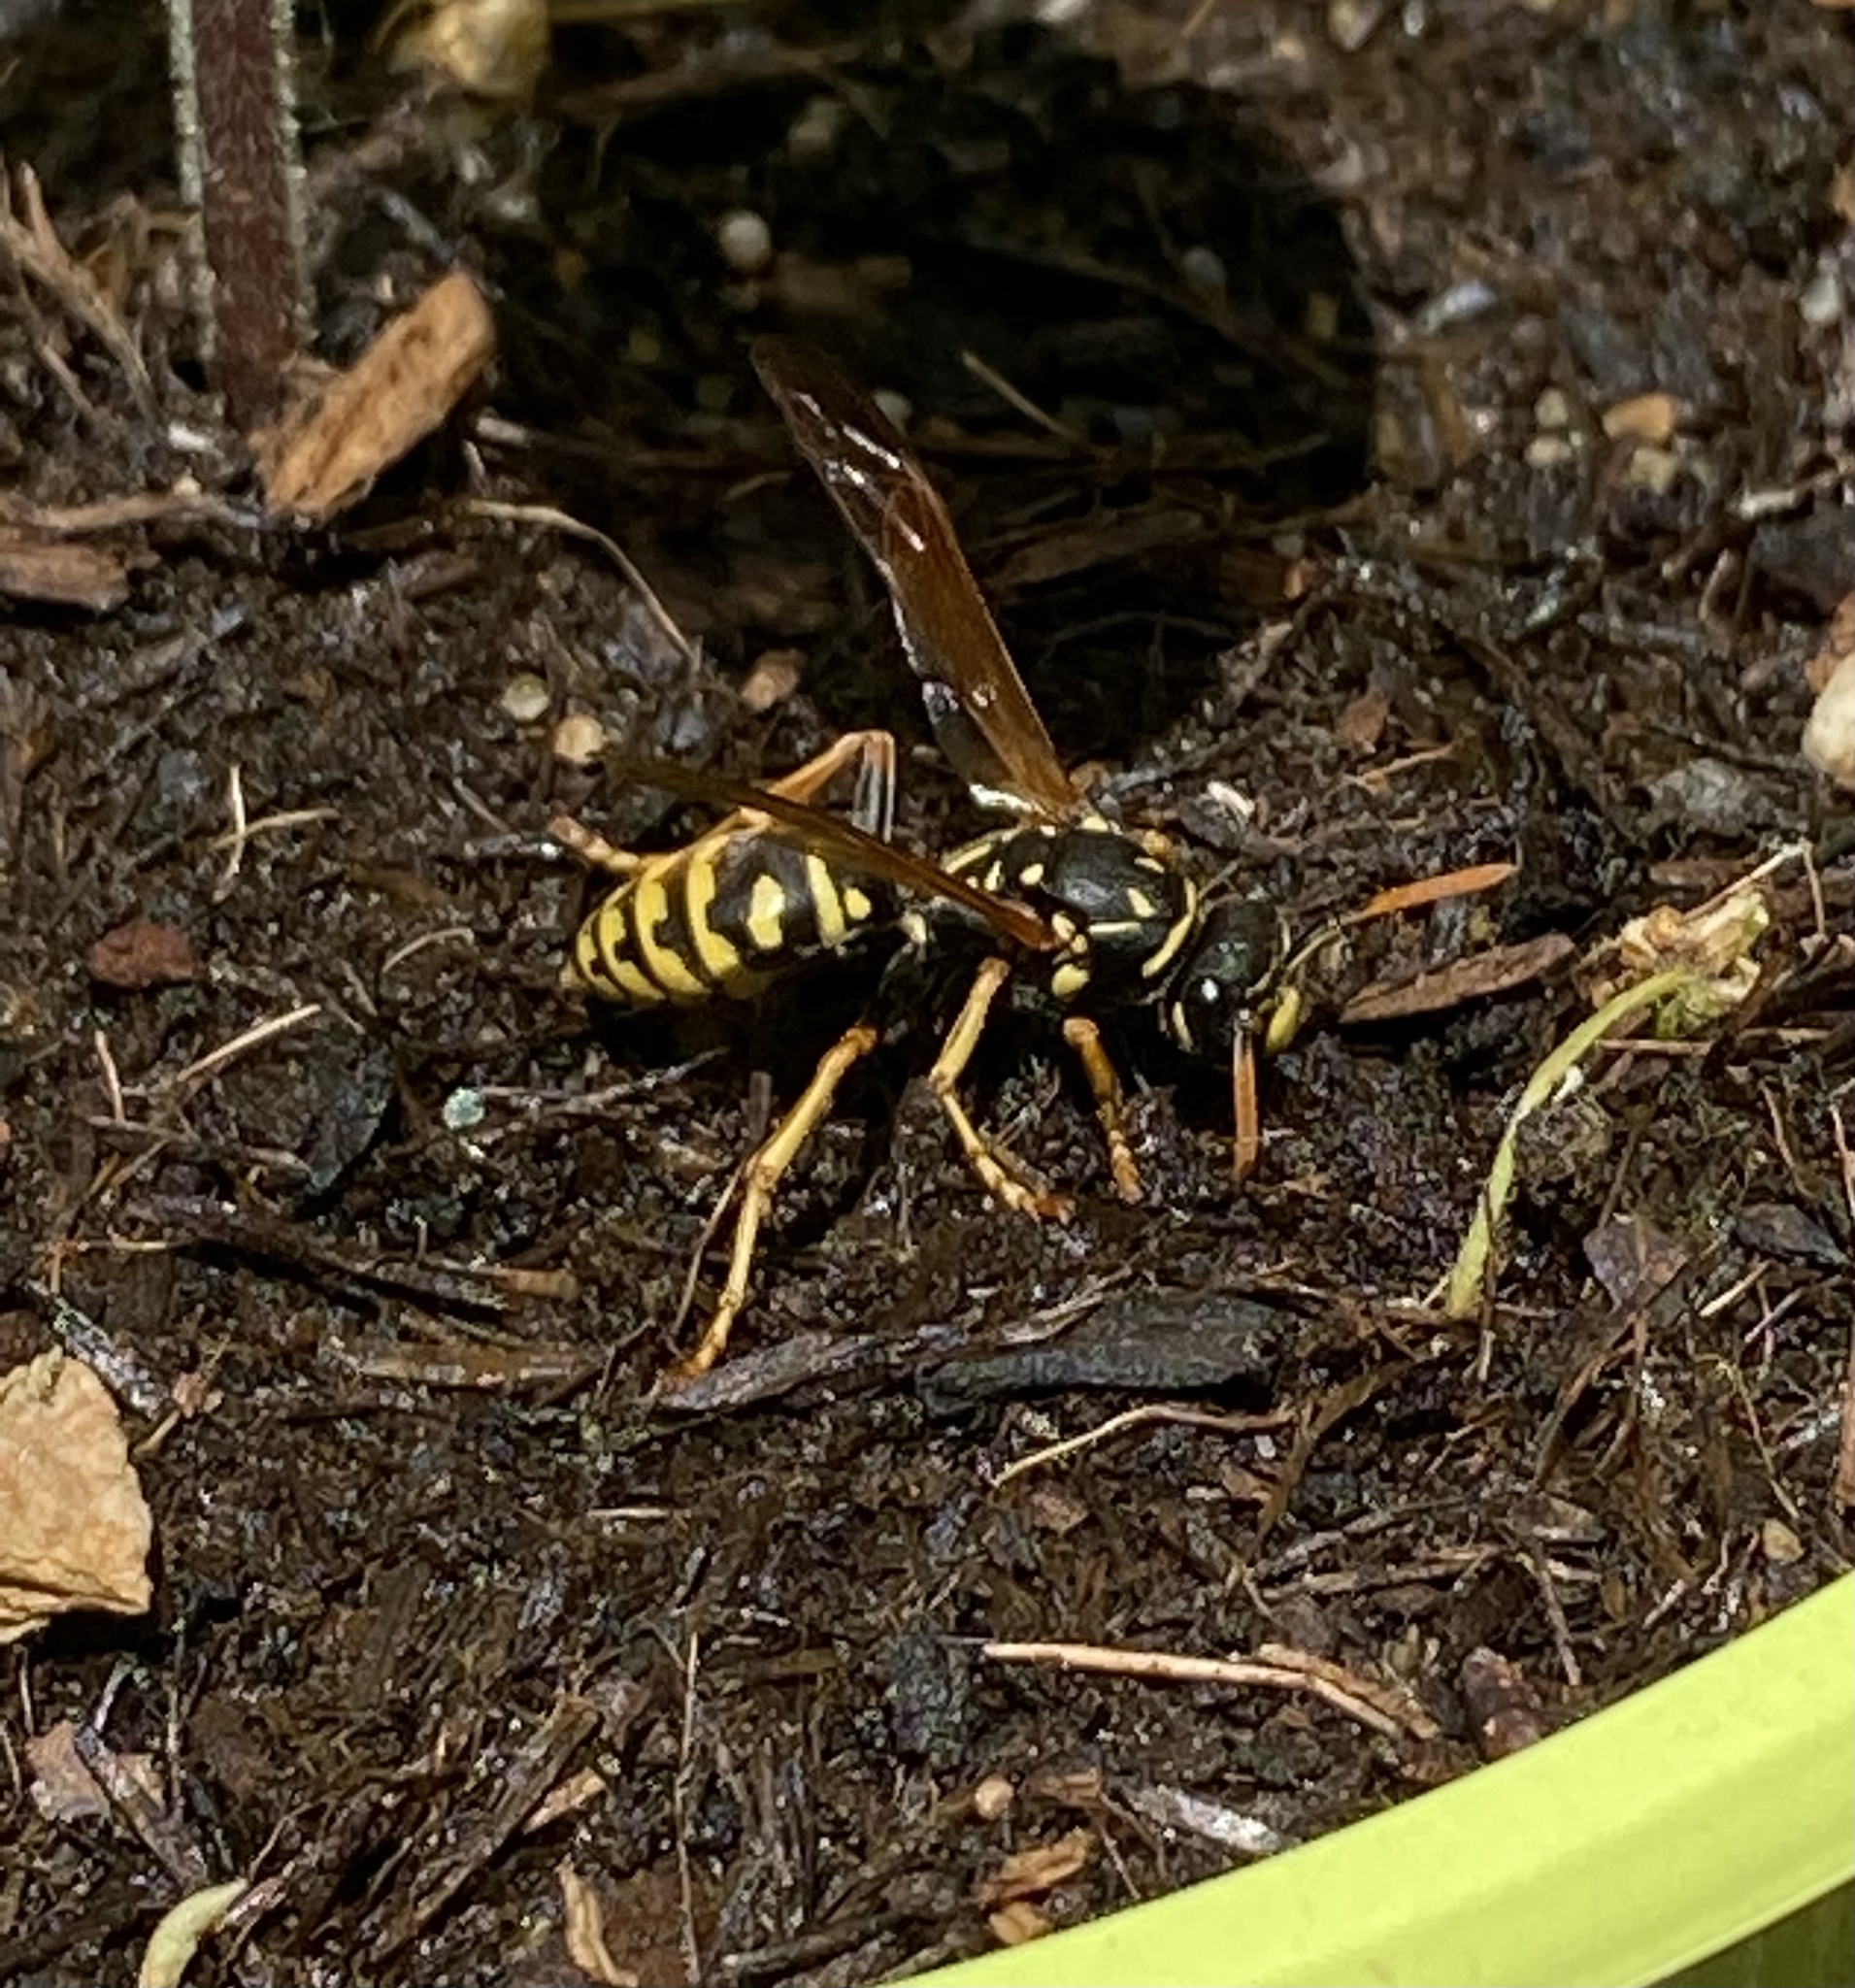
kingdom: Animalia
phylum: Arthropoda
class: Insecta
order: Hymenoptera
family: Eumenidae
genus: Polistes
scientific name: Polistes dominula
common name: Paper wasp
